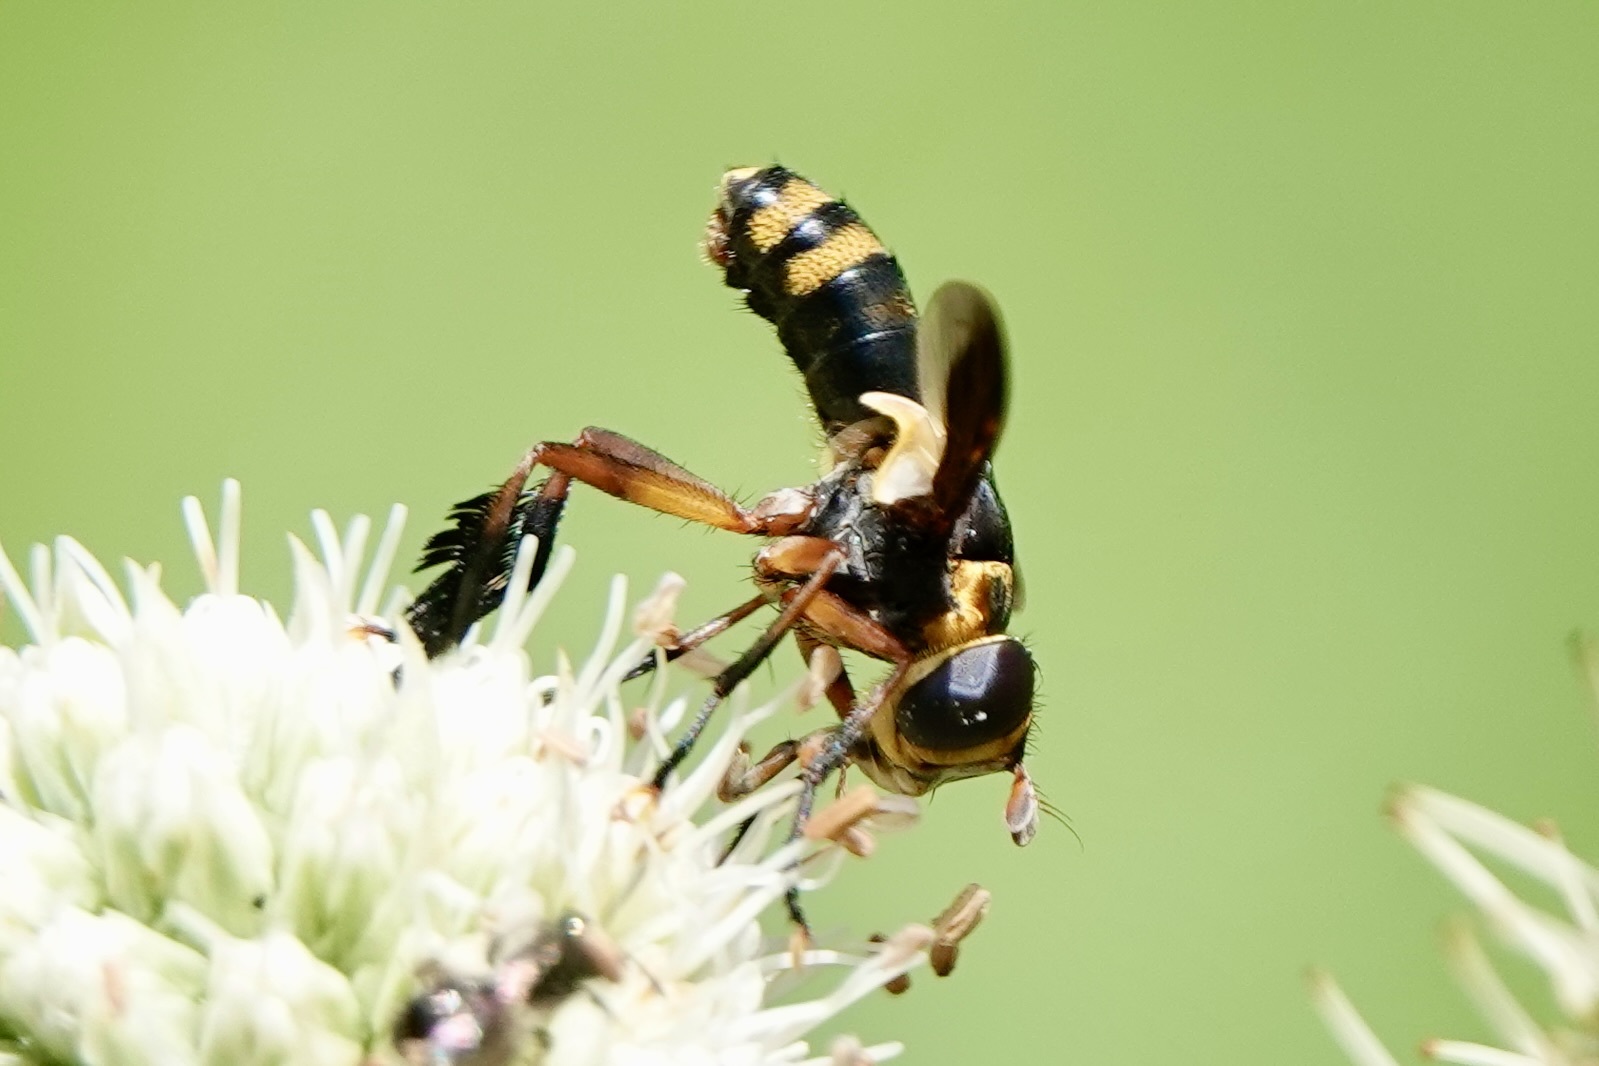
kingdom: Animalia
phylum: Arthropoda
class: Insecta
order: Diptera
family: Tachinidae
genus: Trichopoda
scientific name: Trichopoda plumipes
